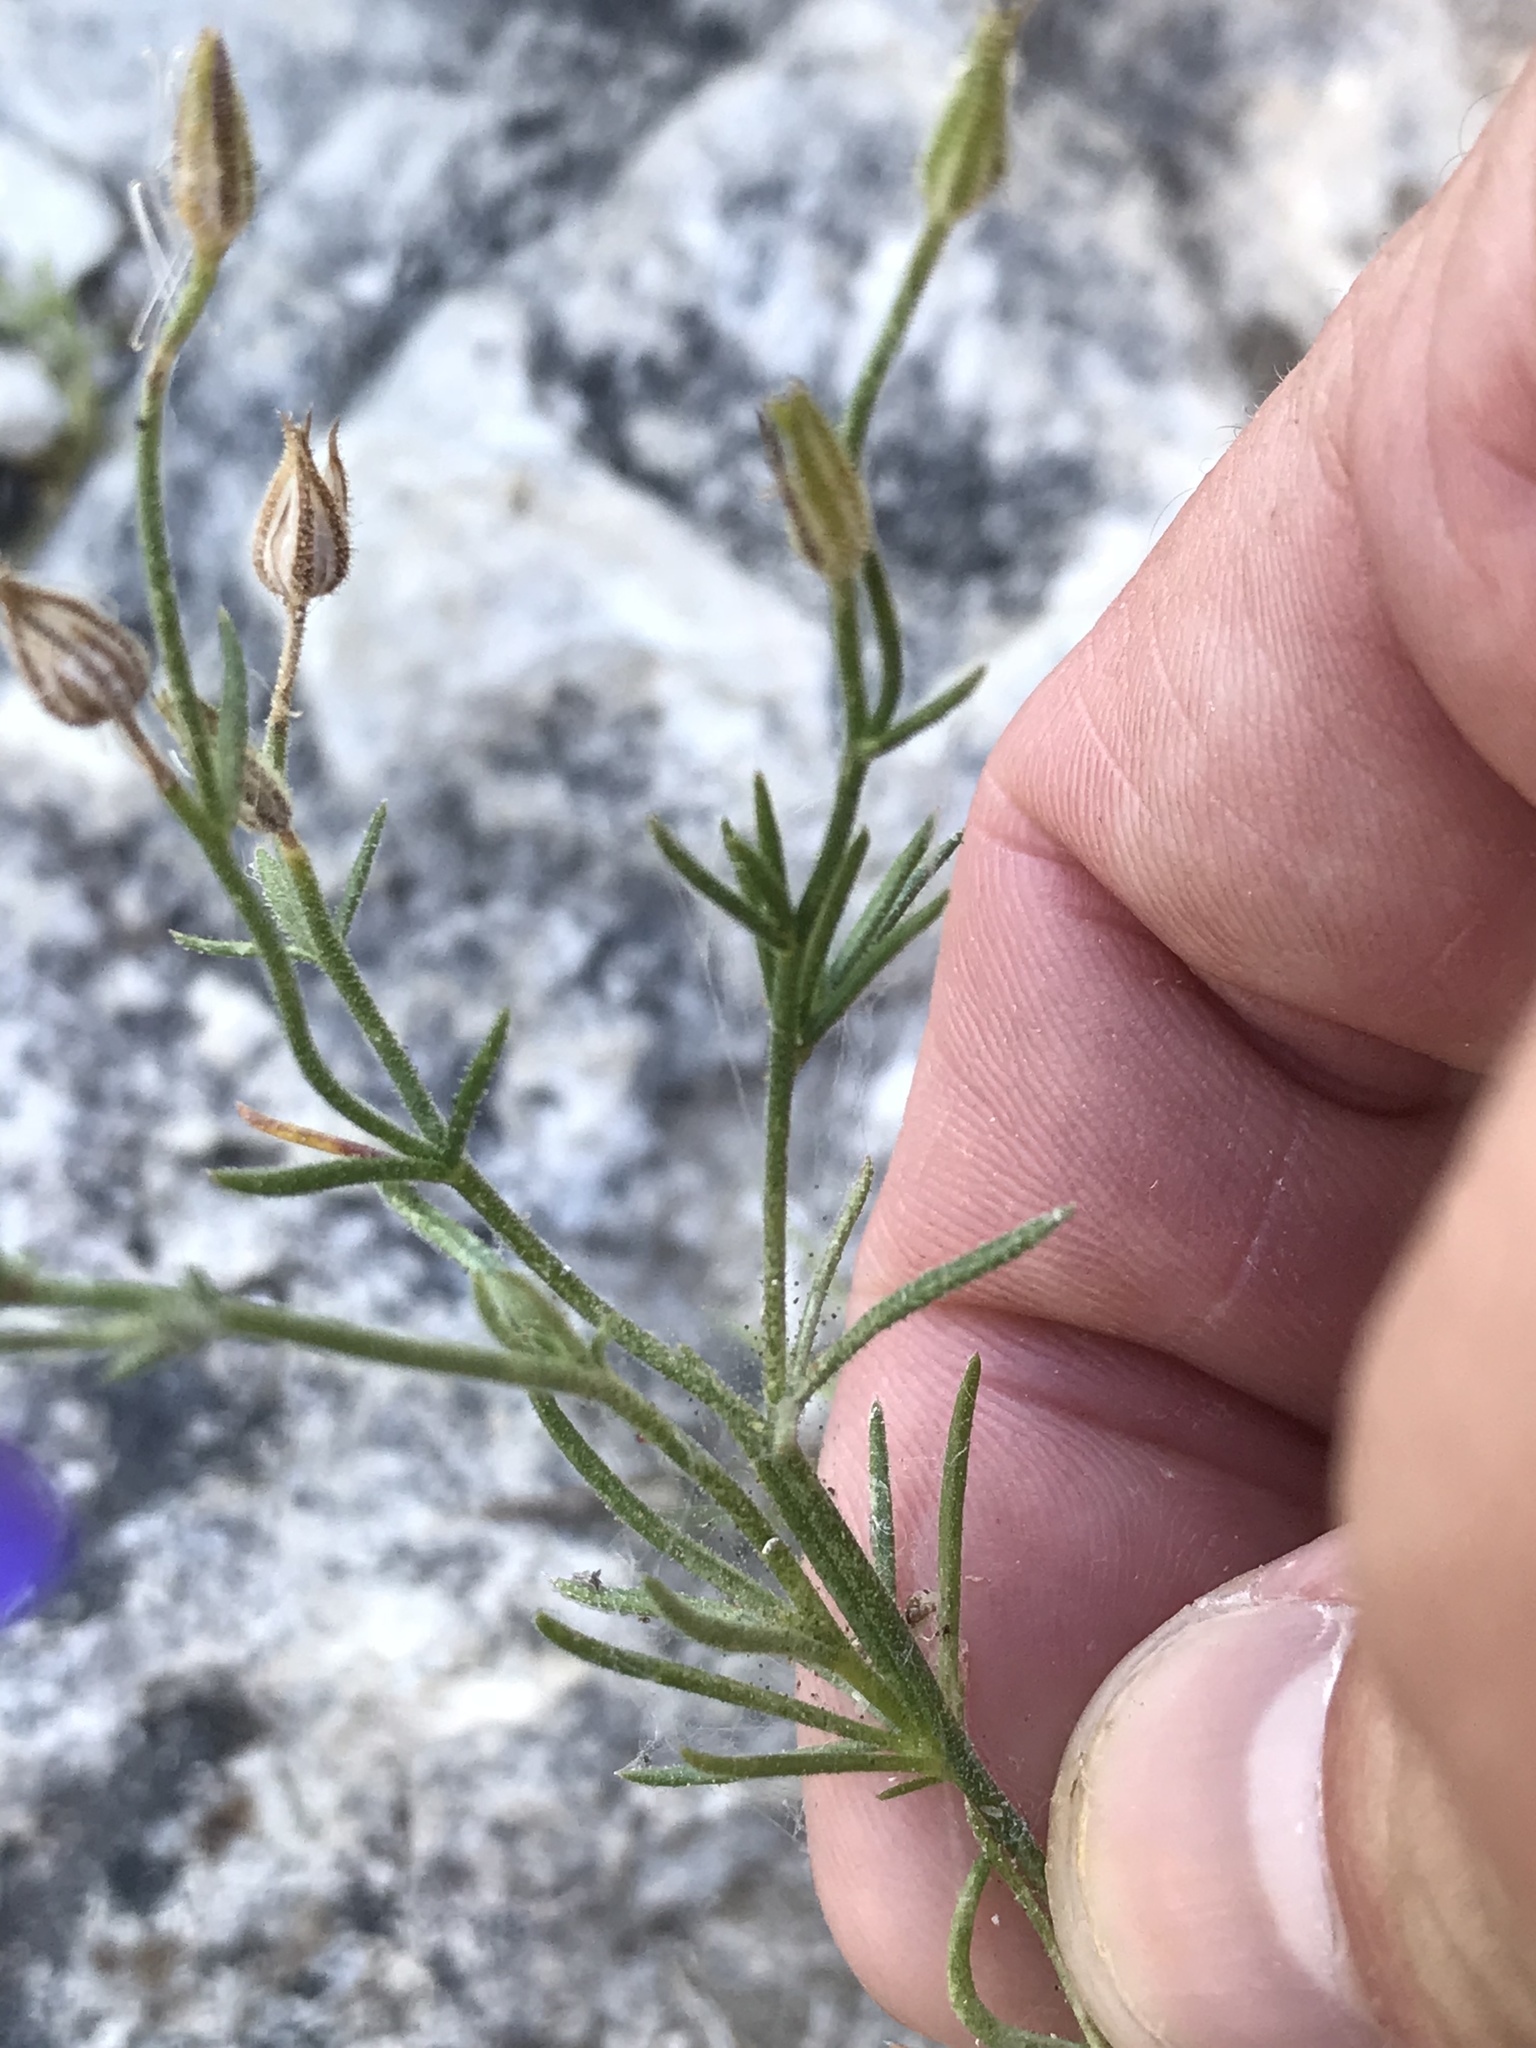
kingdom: Plantae
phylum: Tracheophyta
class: Magnoliopsida
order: Ericales
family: Polemoniaceae
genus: Giliastrum
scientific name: Giliastrum rigidulum
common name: Bluebowls
